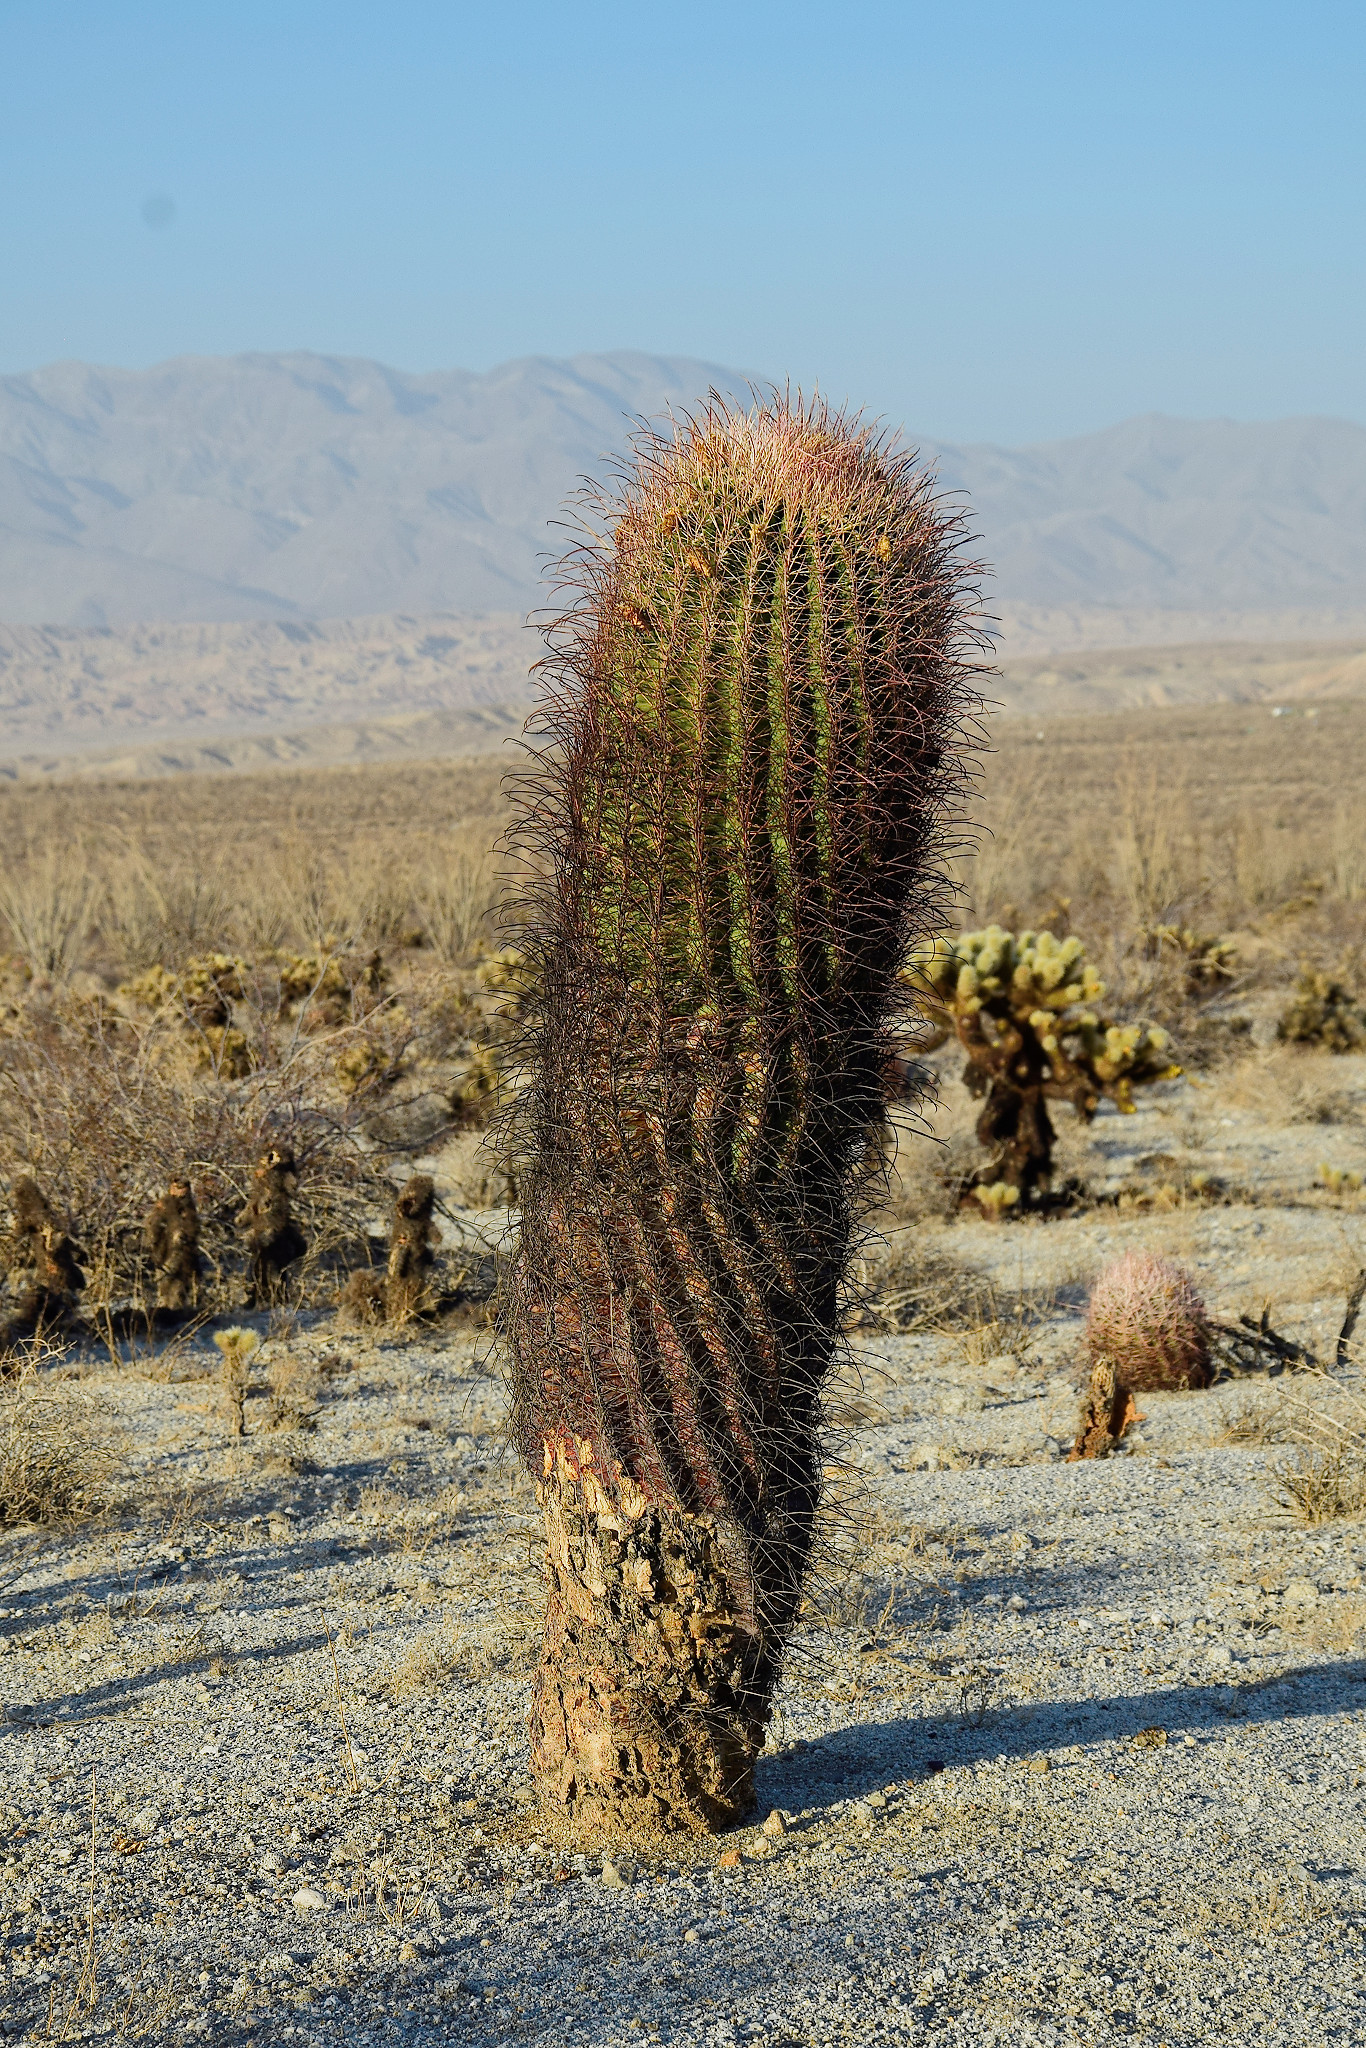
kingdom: Plantae
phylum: Tracheophyta
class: Magnoliopsida
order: Caryophyllales
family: Cactaceae
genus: Ferocactus
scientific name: Ferocactus cylindraceus
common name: California barrel cactus
